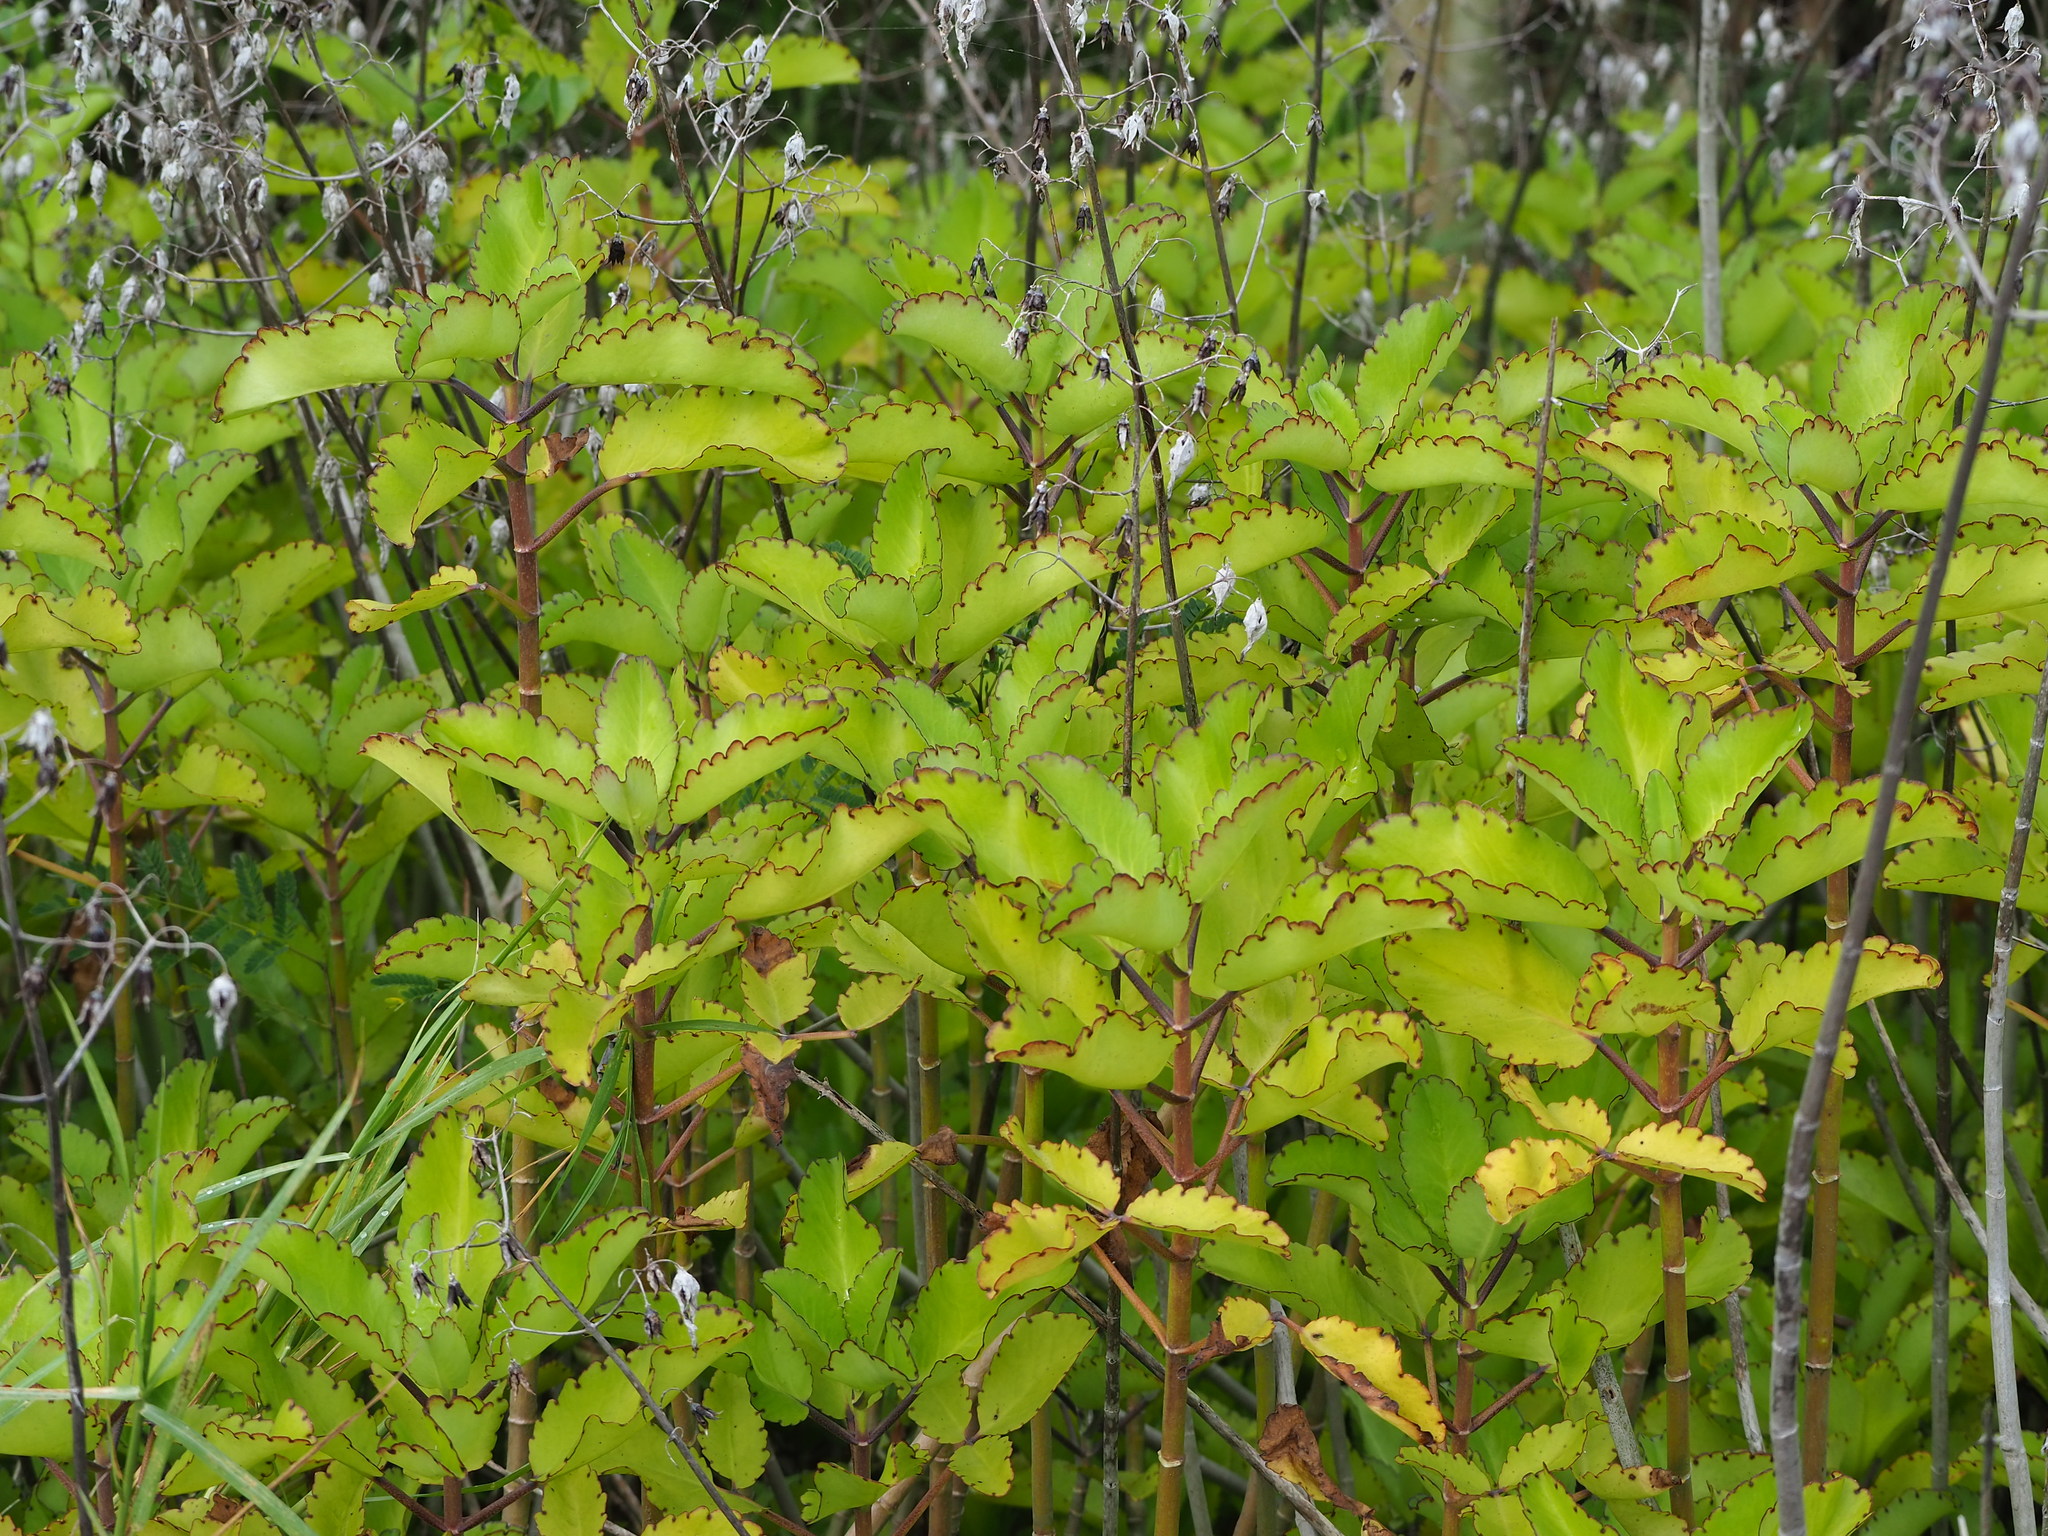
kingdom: Plantae
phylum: Tracheophyta
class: Magnoliopsida
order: Saxifragales
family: Crassulaceae
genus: Kalanchoe
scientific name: Kalanchoe pinnata
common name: Cathedral bells
